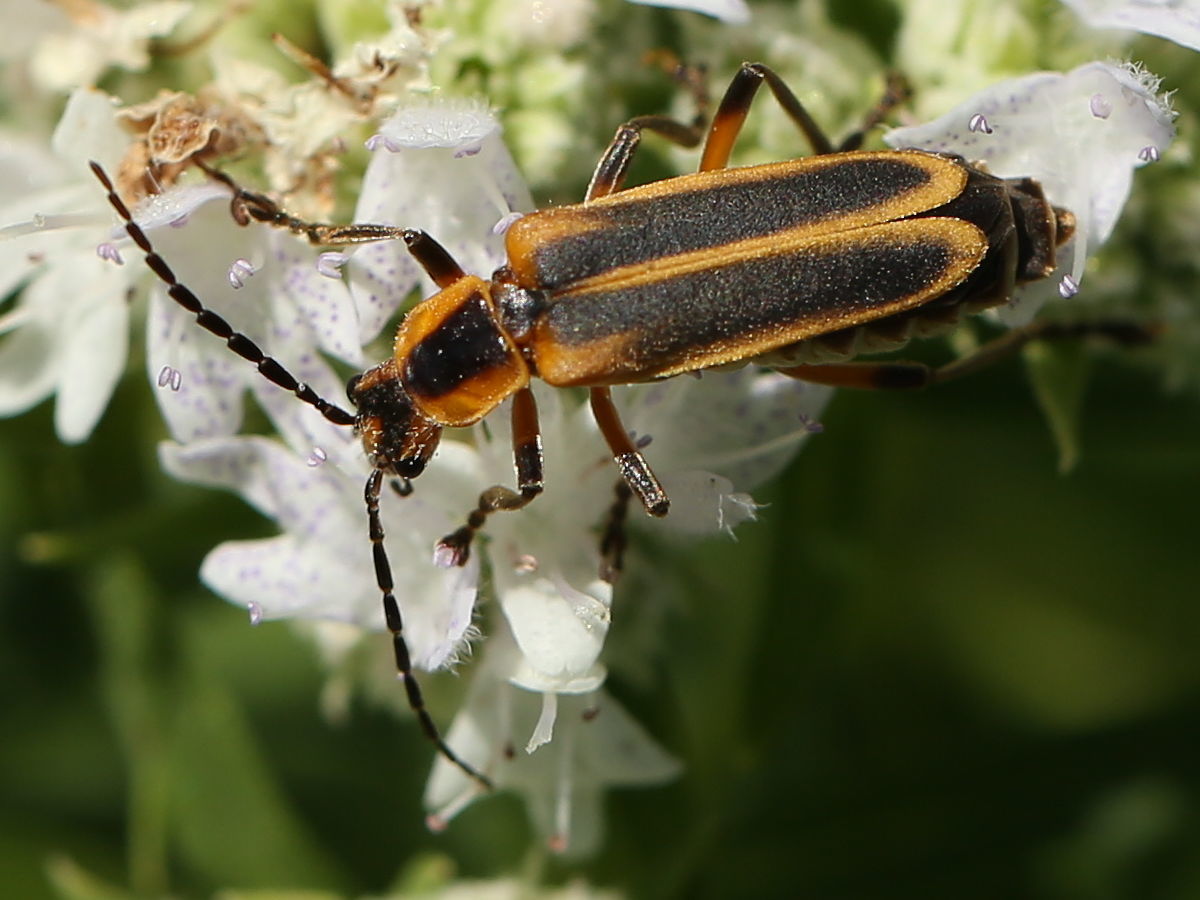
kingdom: Animalia
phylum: Arthropoda
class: Insecta
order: Coleoptera
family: Cantharidae
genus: Chauliognathus
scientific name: Chauliognathus marginatus
